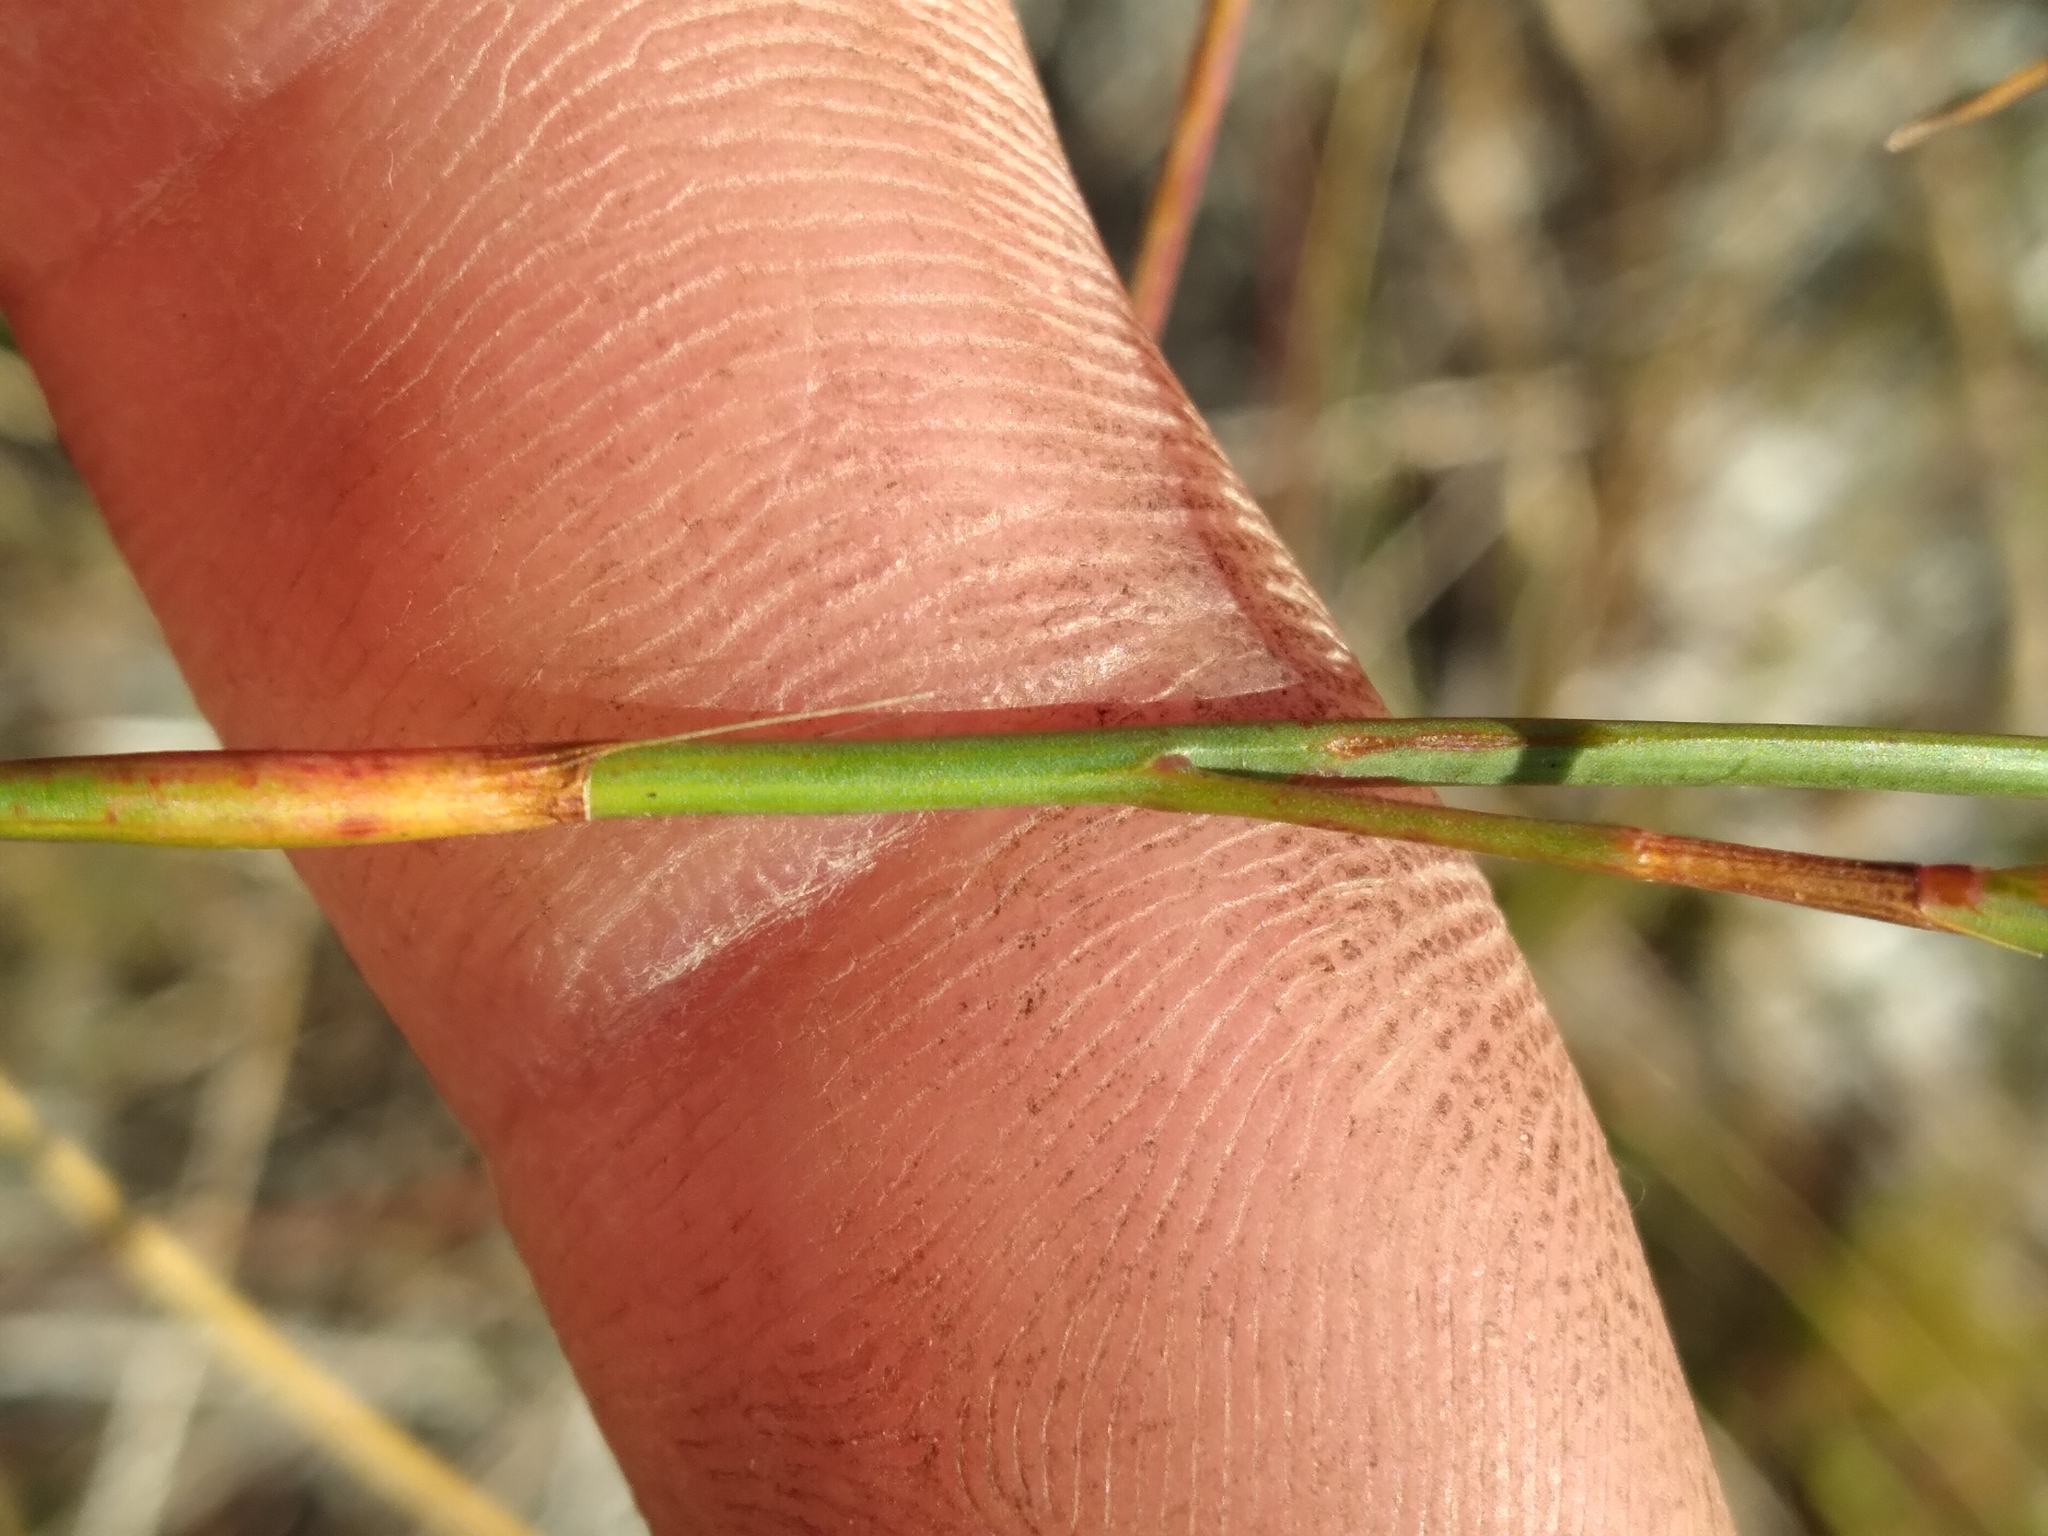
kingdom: Plantae
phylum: Tracheophyta
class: Magnoliopsida
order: Caryophyllales
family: Polygonaceae
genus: Polygonella
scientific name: Polygonella ciliata
